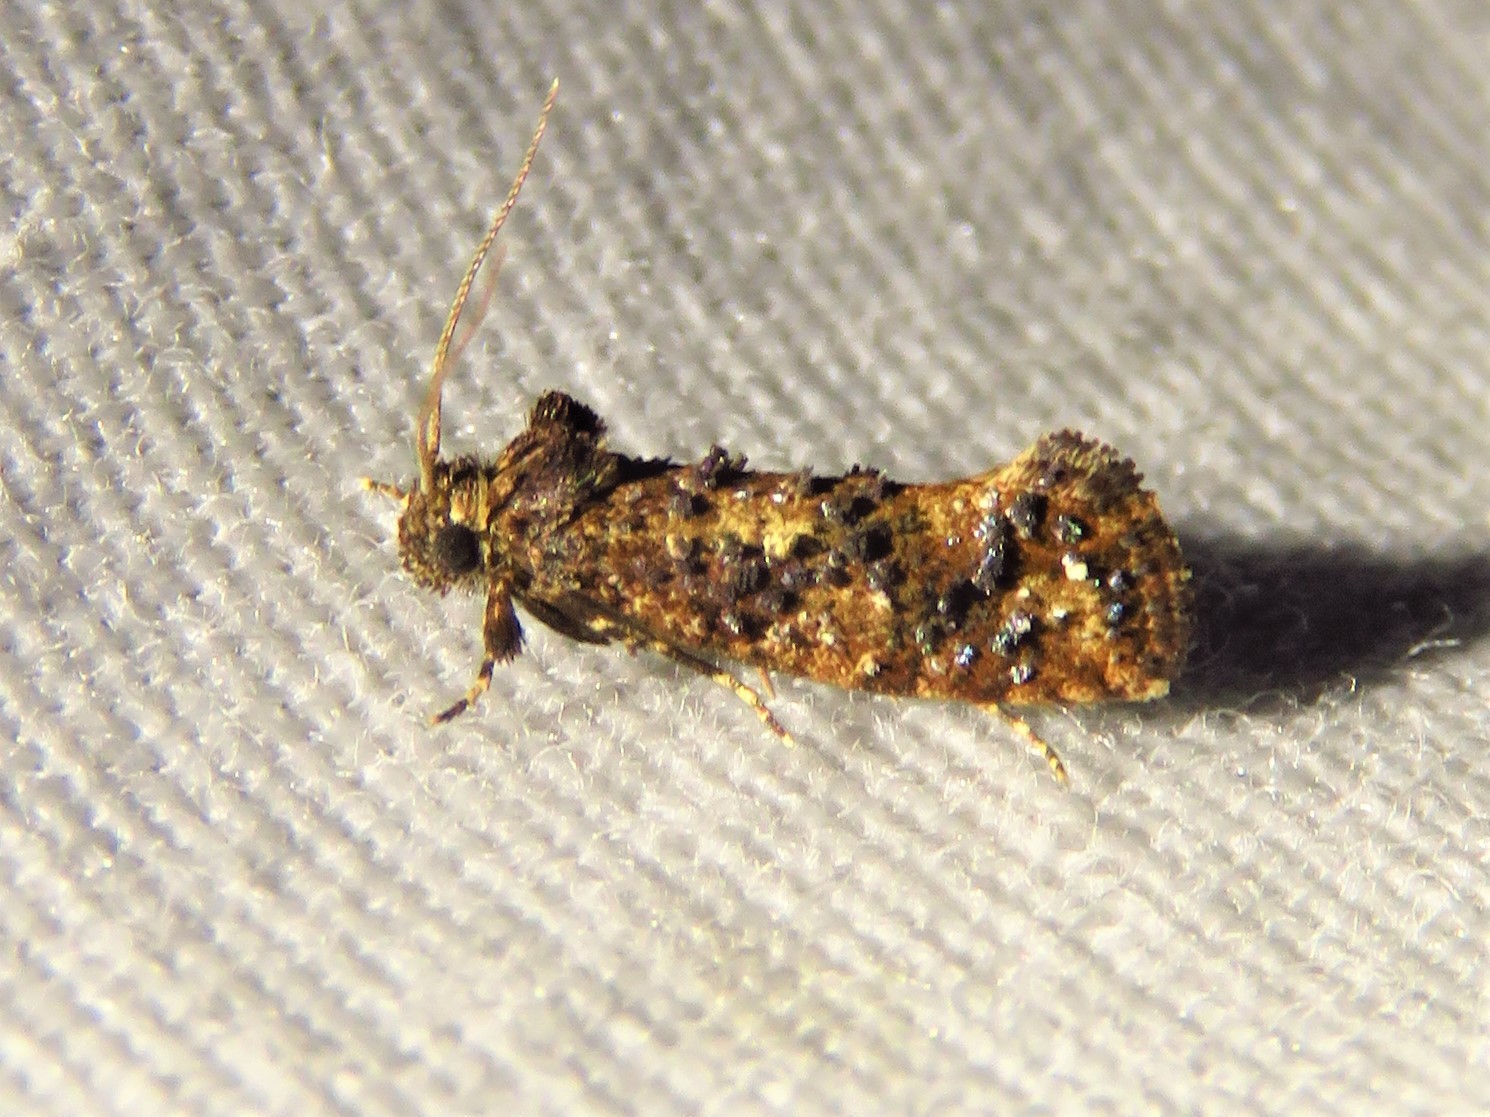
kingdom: Animalia
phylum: Arthropoda
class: Insecta
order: Lepidoptera
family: Tineidae
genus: Acrolophus
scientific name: Acrolophus cressoni
